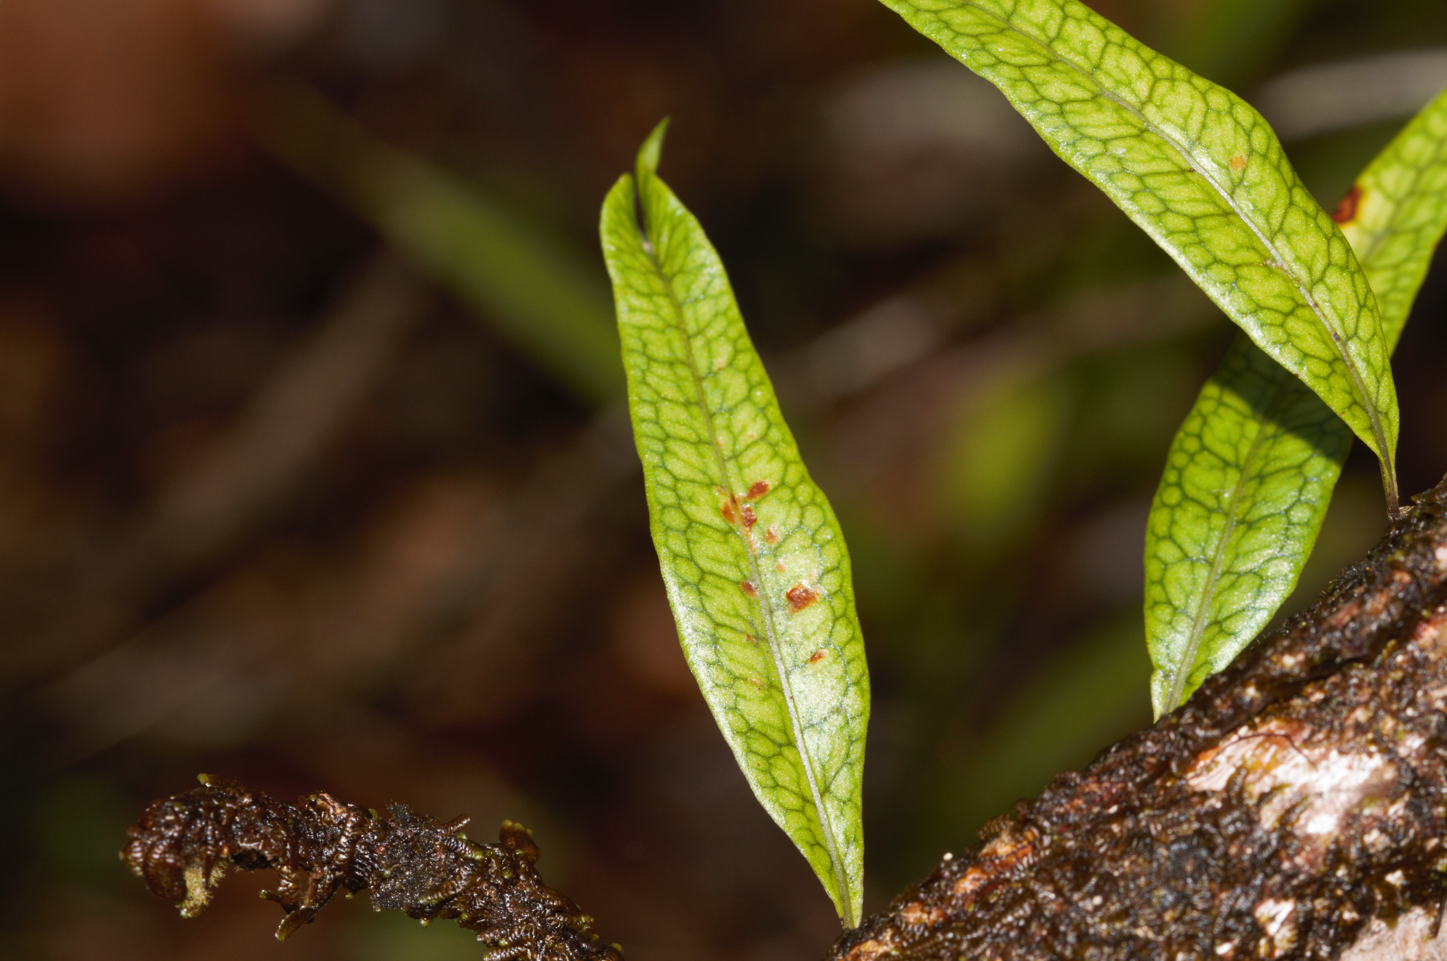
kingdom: Plantae
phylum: Tracheophyta
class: Polypodiopsida
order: Polypodiales
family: Polypodiaceae
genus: Microgramma
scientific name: Microgramma lycopodioides
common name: Bastard catclaw
